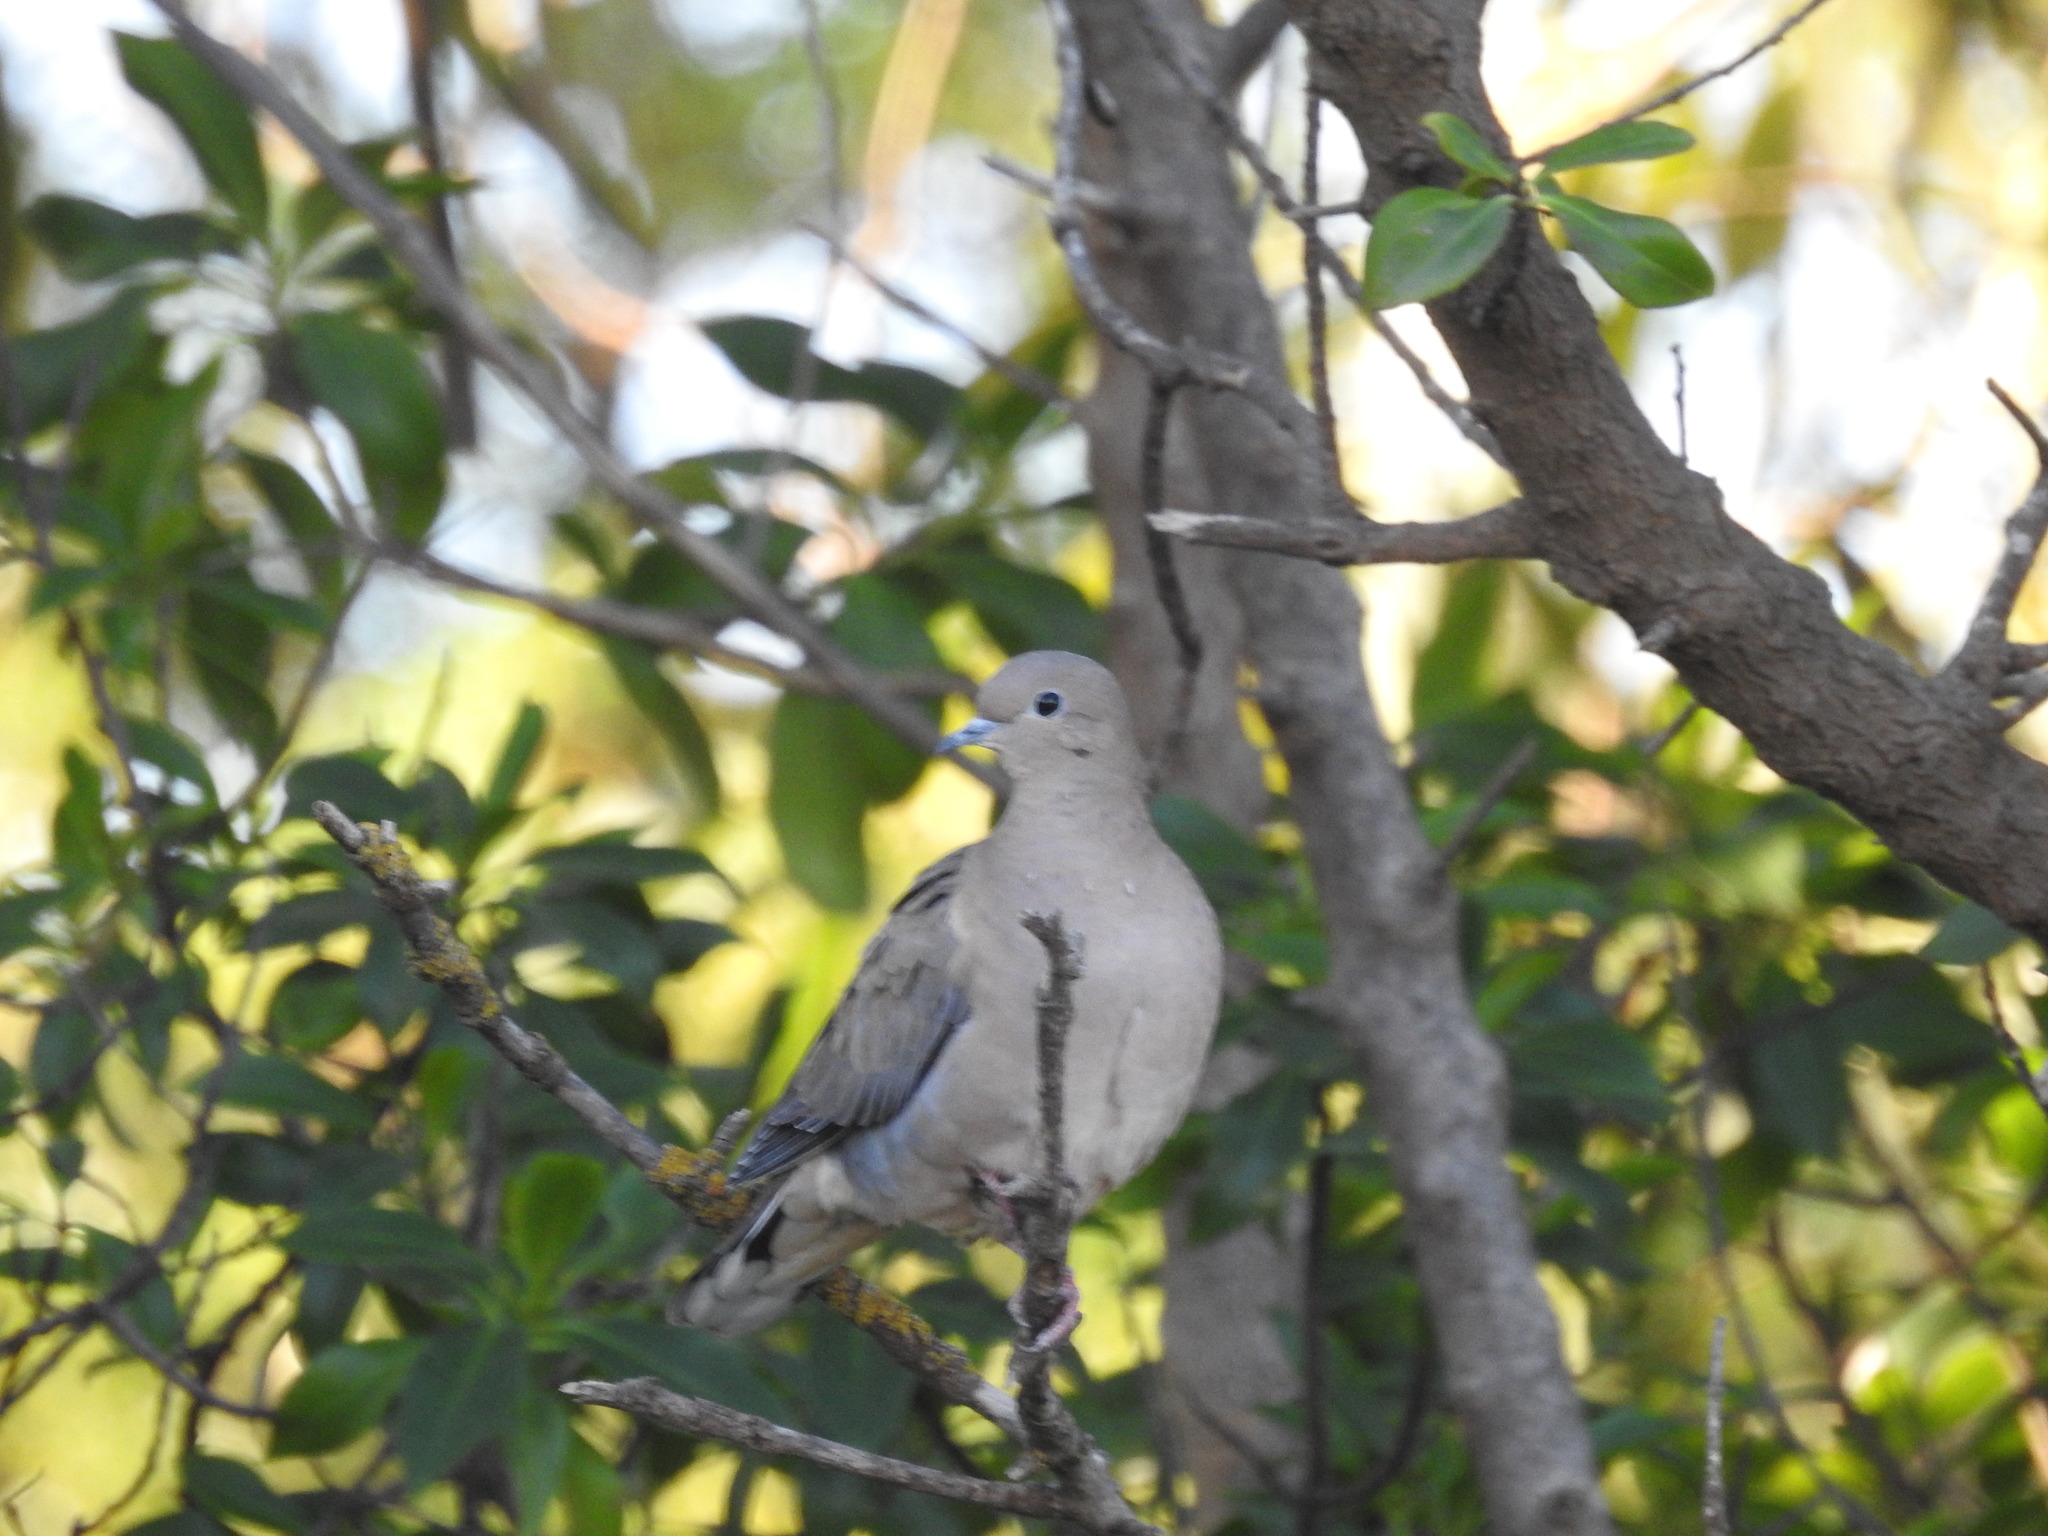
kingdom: Animalia
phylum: Chordata
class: Aves
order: Columbiformes
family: Columbidae
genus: Zenaida
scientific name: Zenaida auriculata
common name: Eared dove
